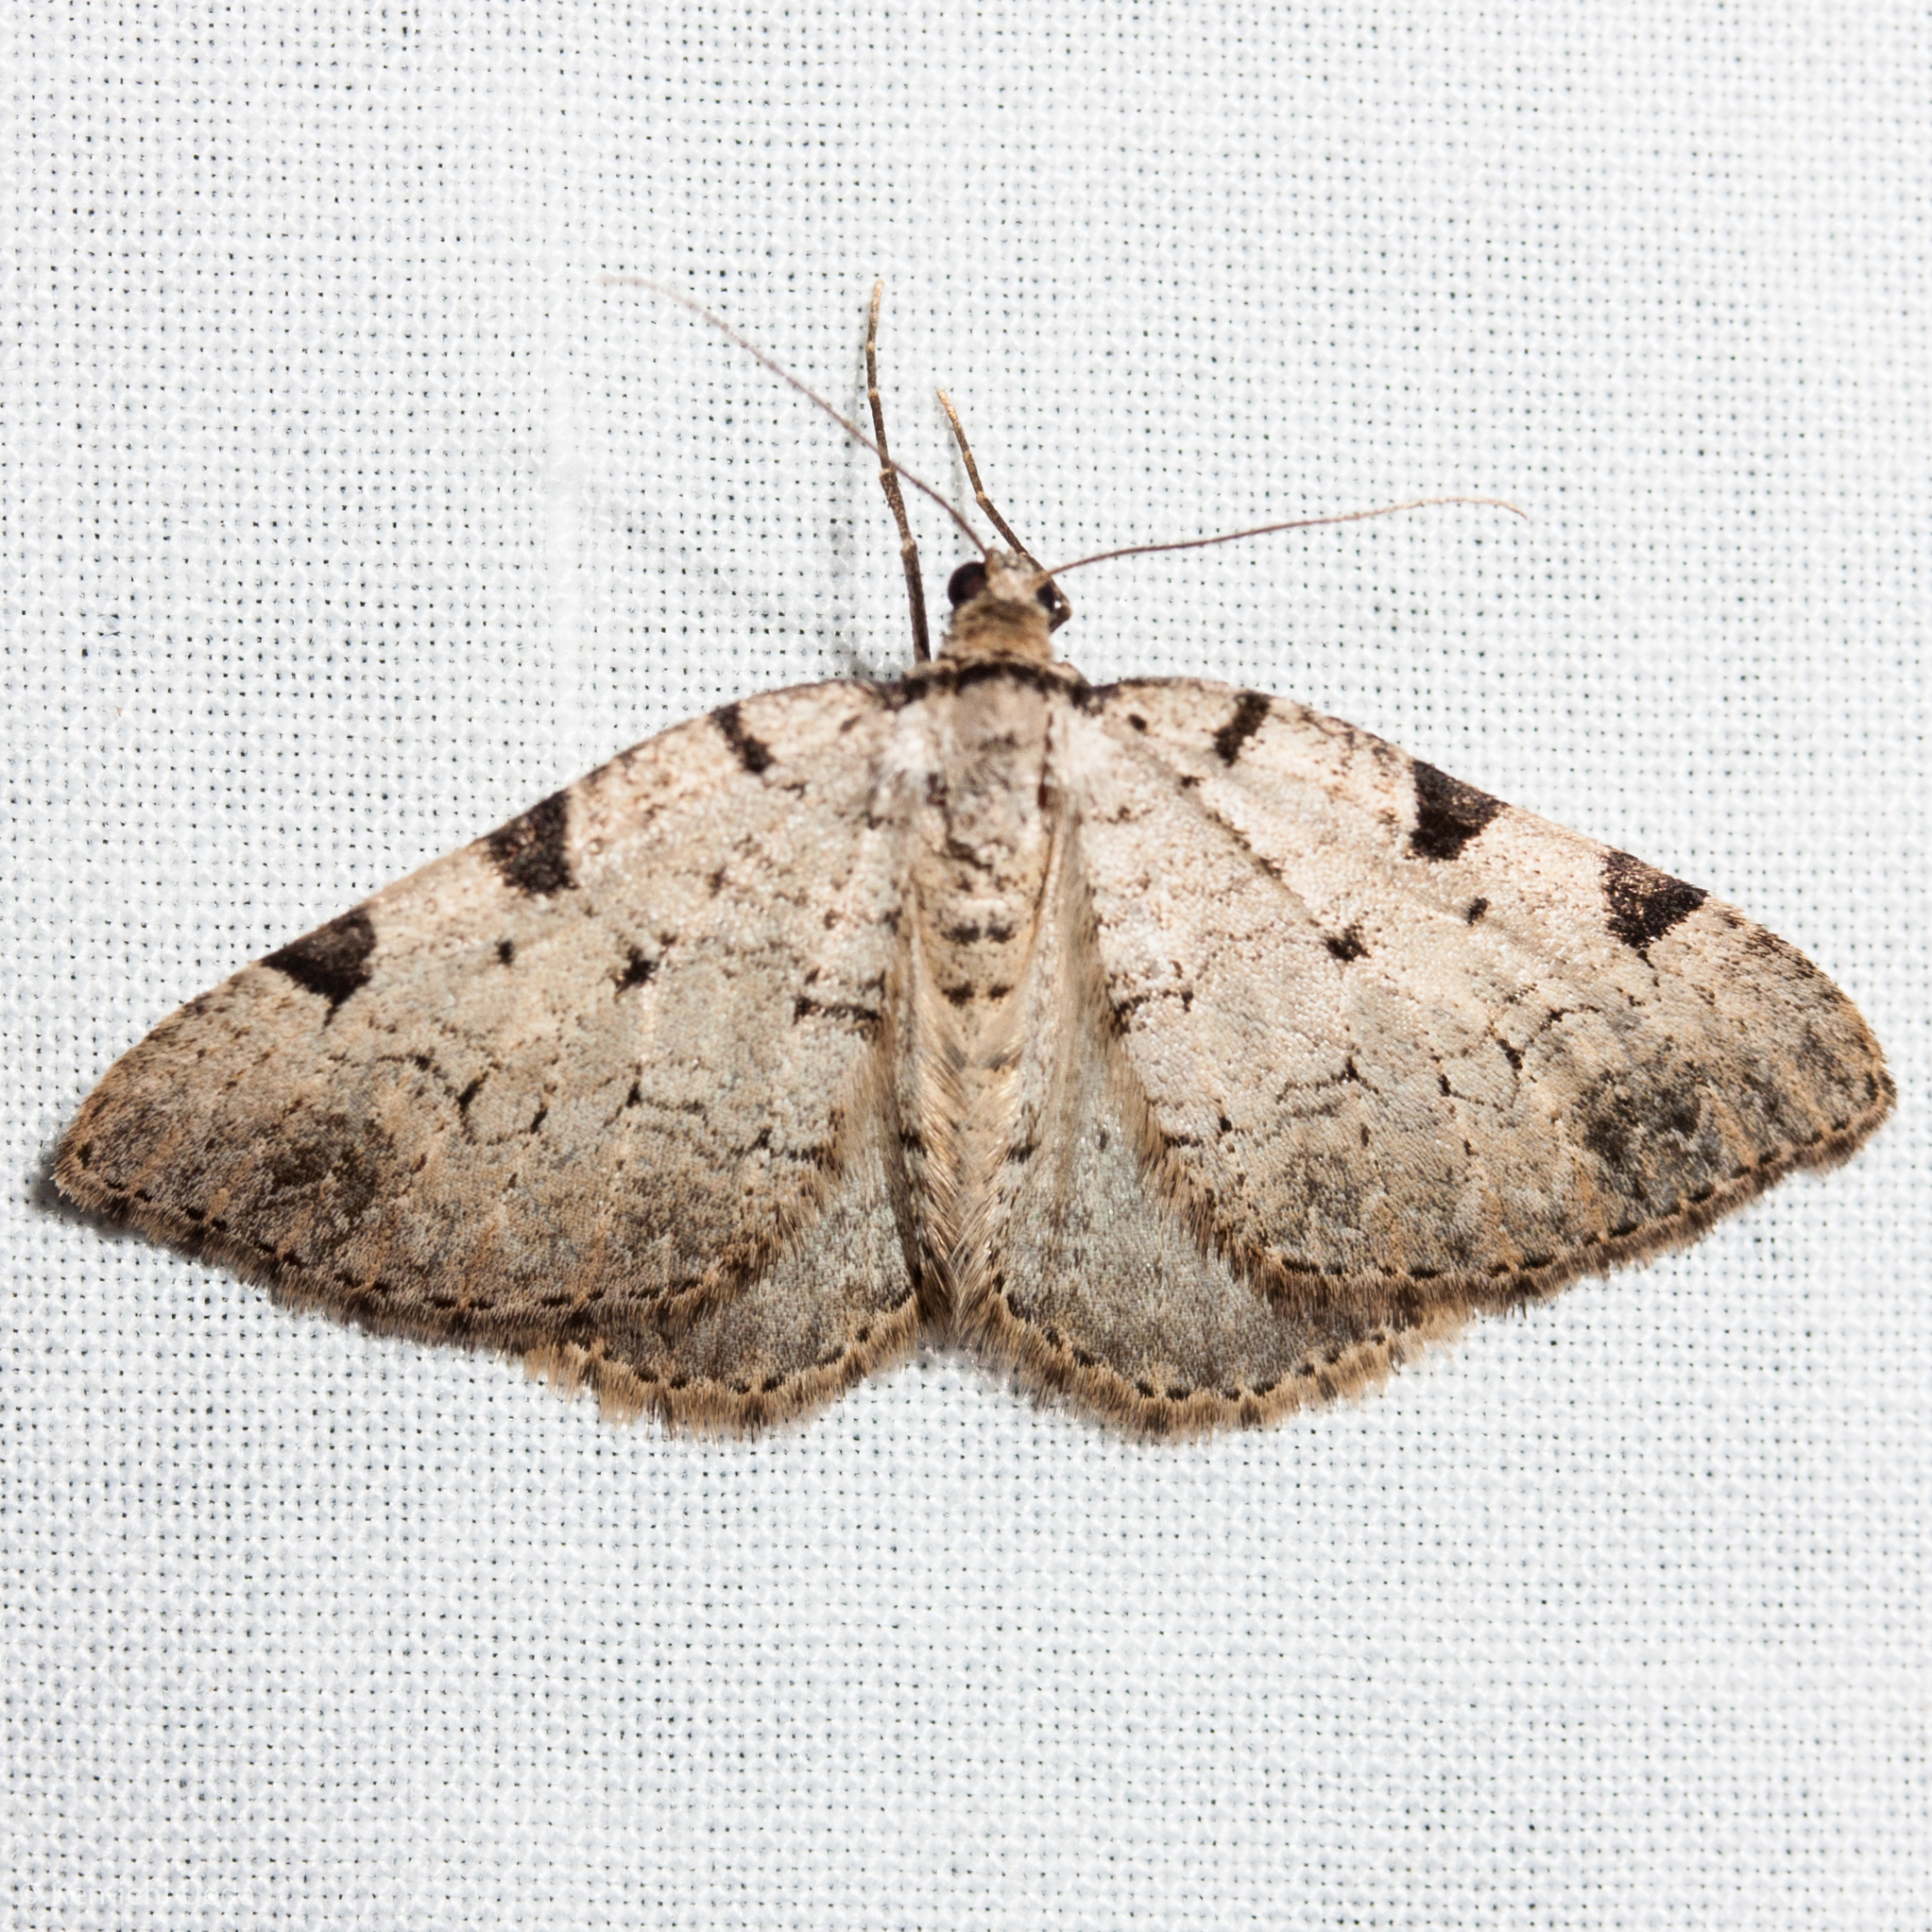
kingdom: Animalia
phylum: Arthropoda
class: Insecta
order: Lepidoptera
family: Geometridae
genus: Perizoma
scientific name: Perizoma costiguttata
